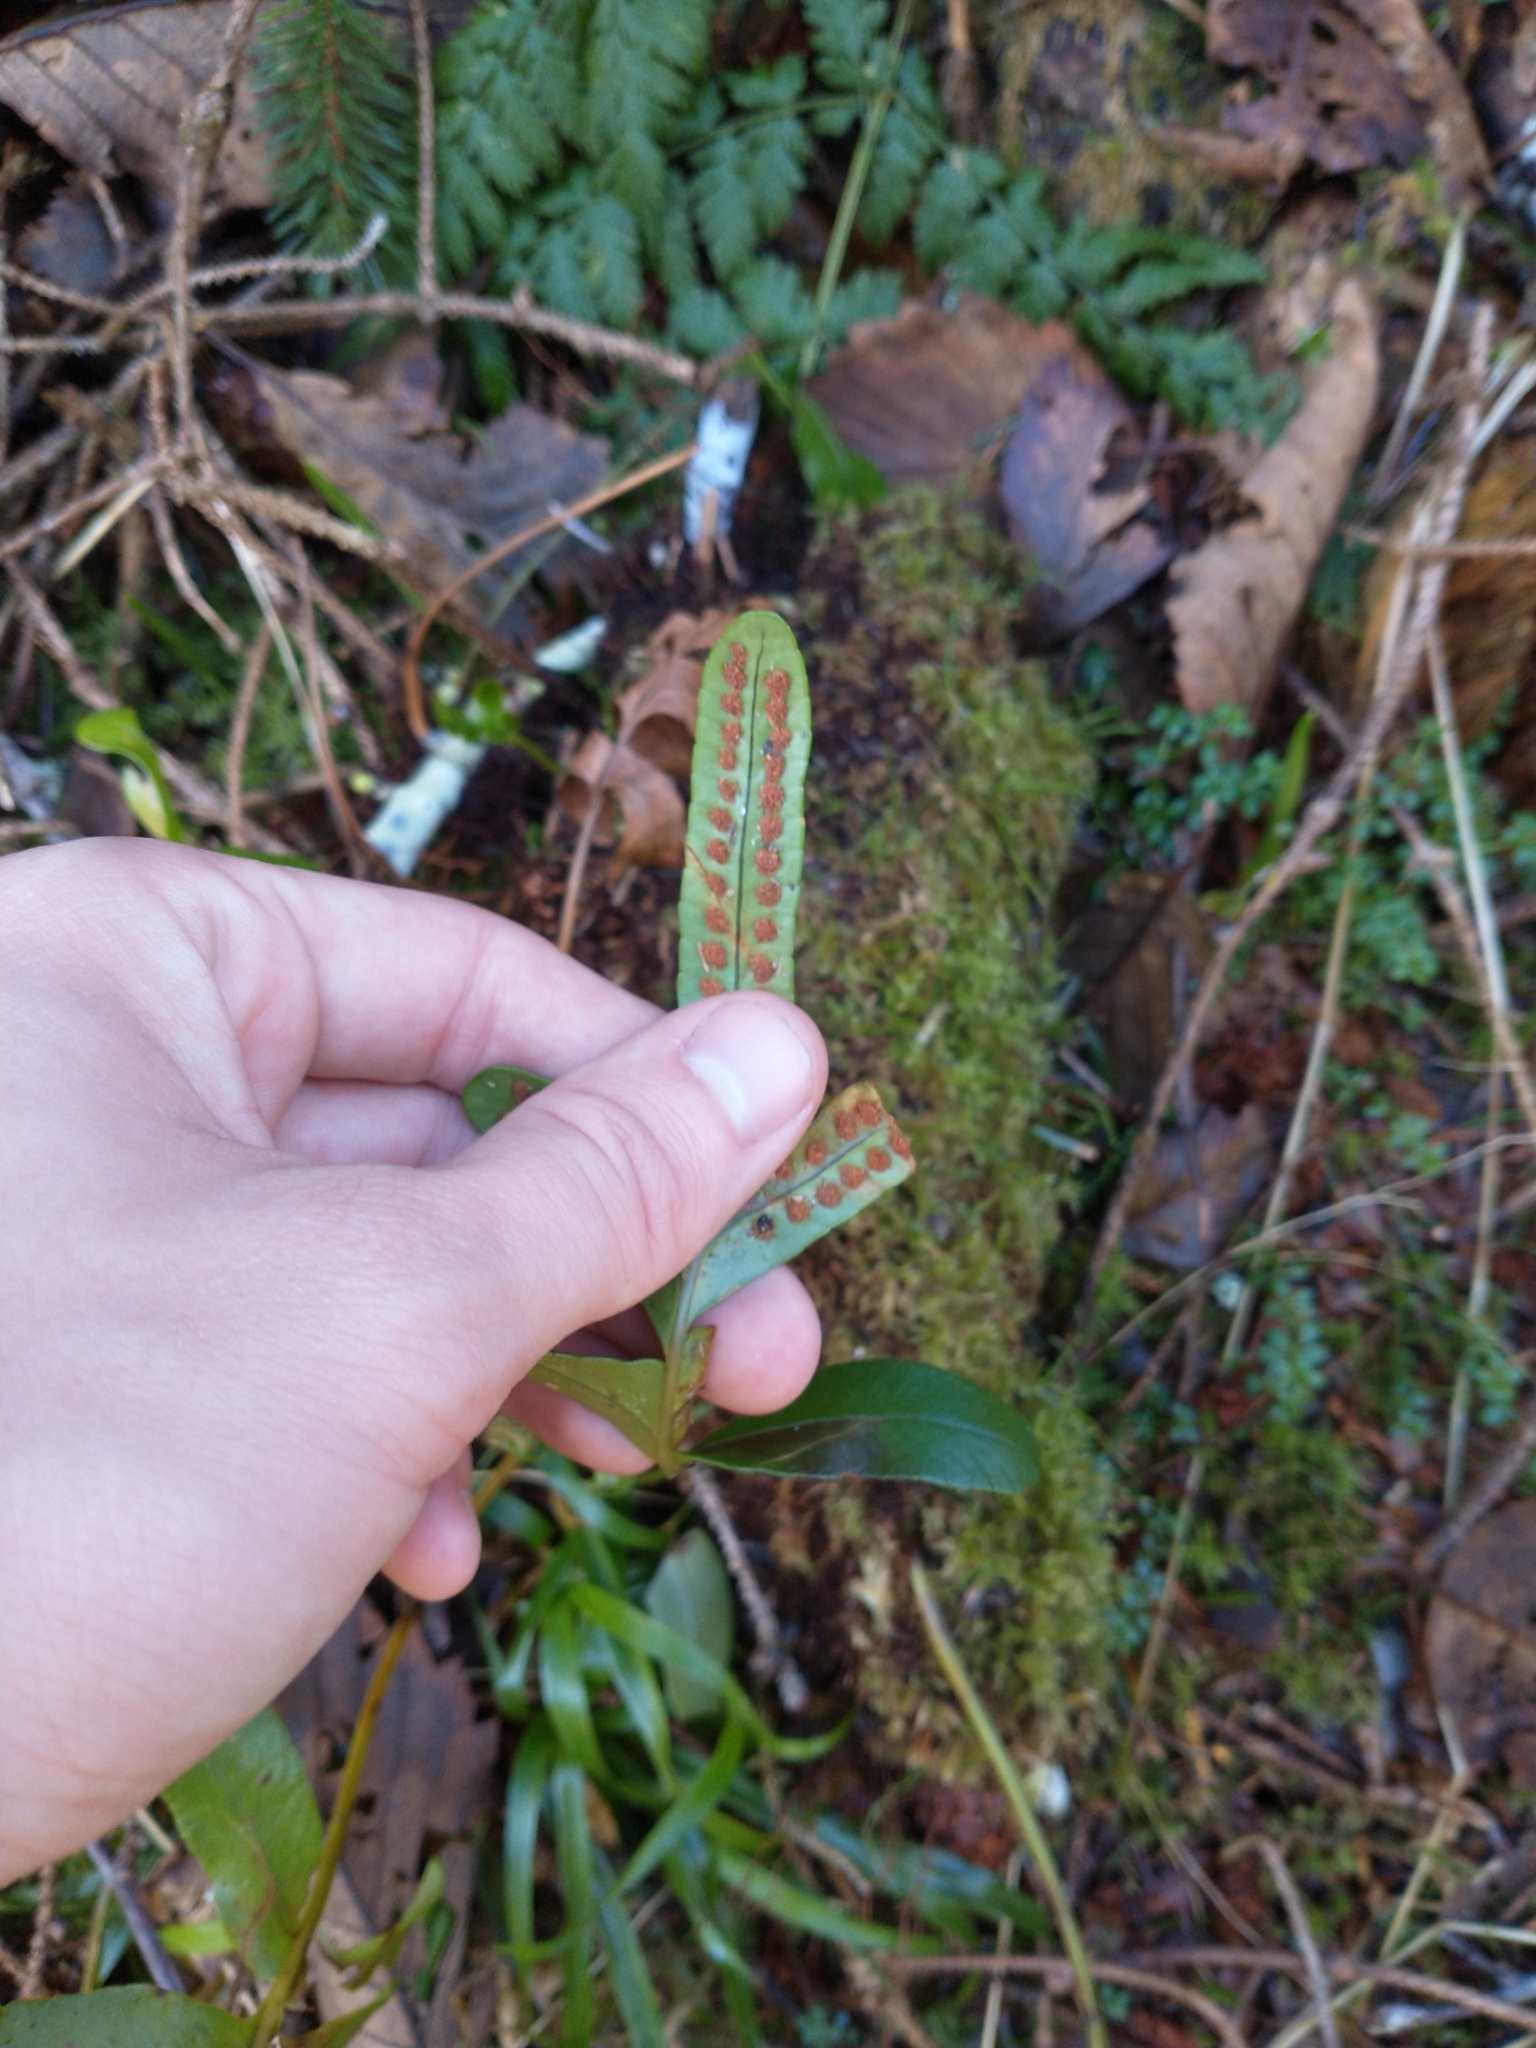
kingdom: Plantae
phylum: Tracheophyta
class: Polypodiopsida
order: Polypodiales
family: Polypodiaceae
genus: Polypodium
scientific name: Polypodium scouleri
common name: Scouler's polypody
